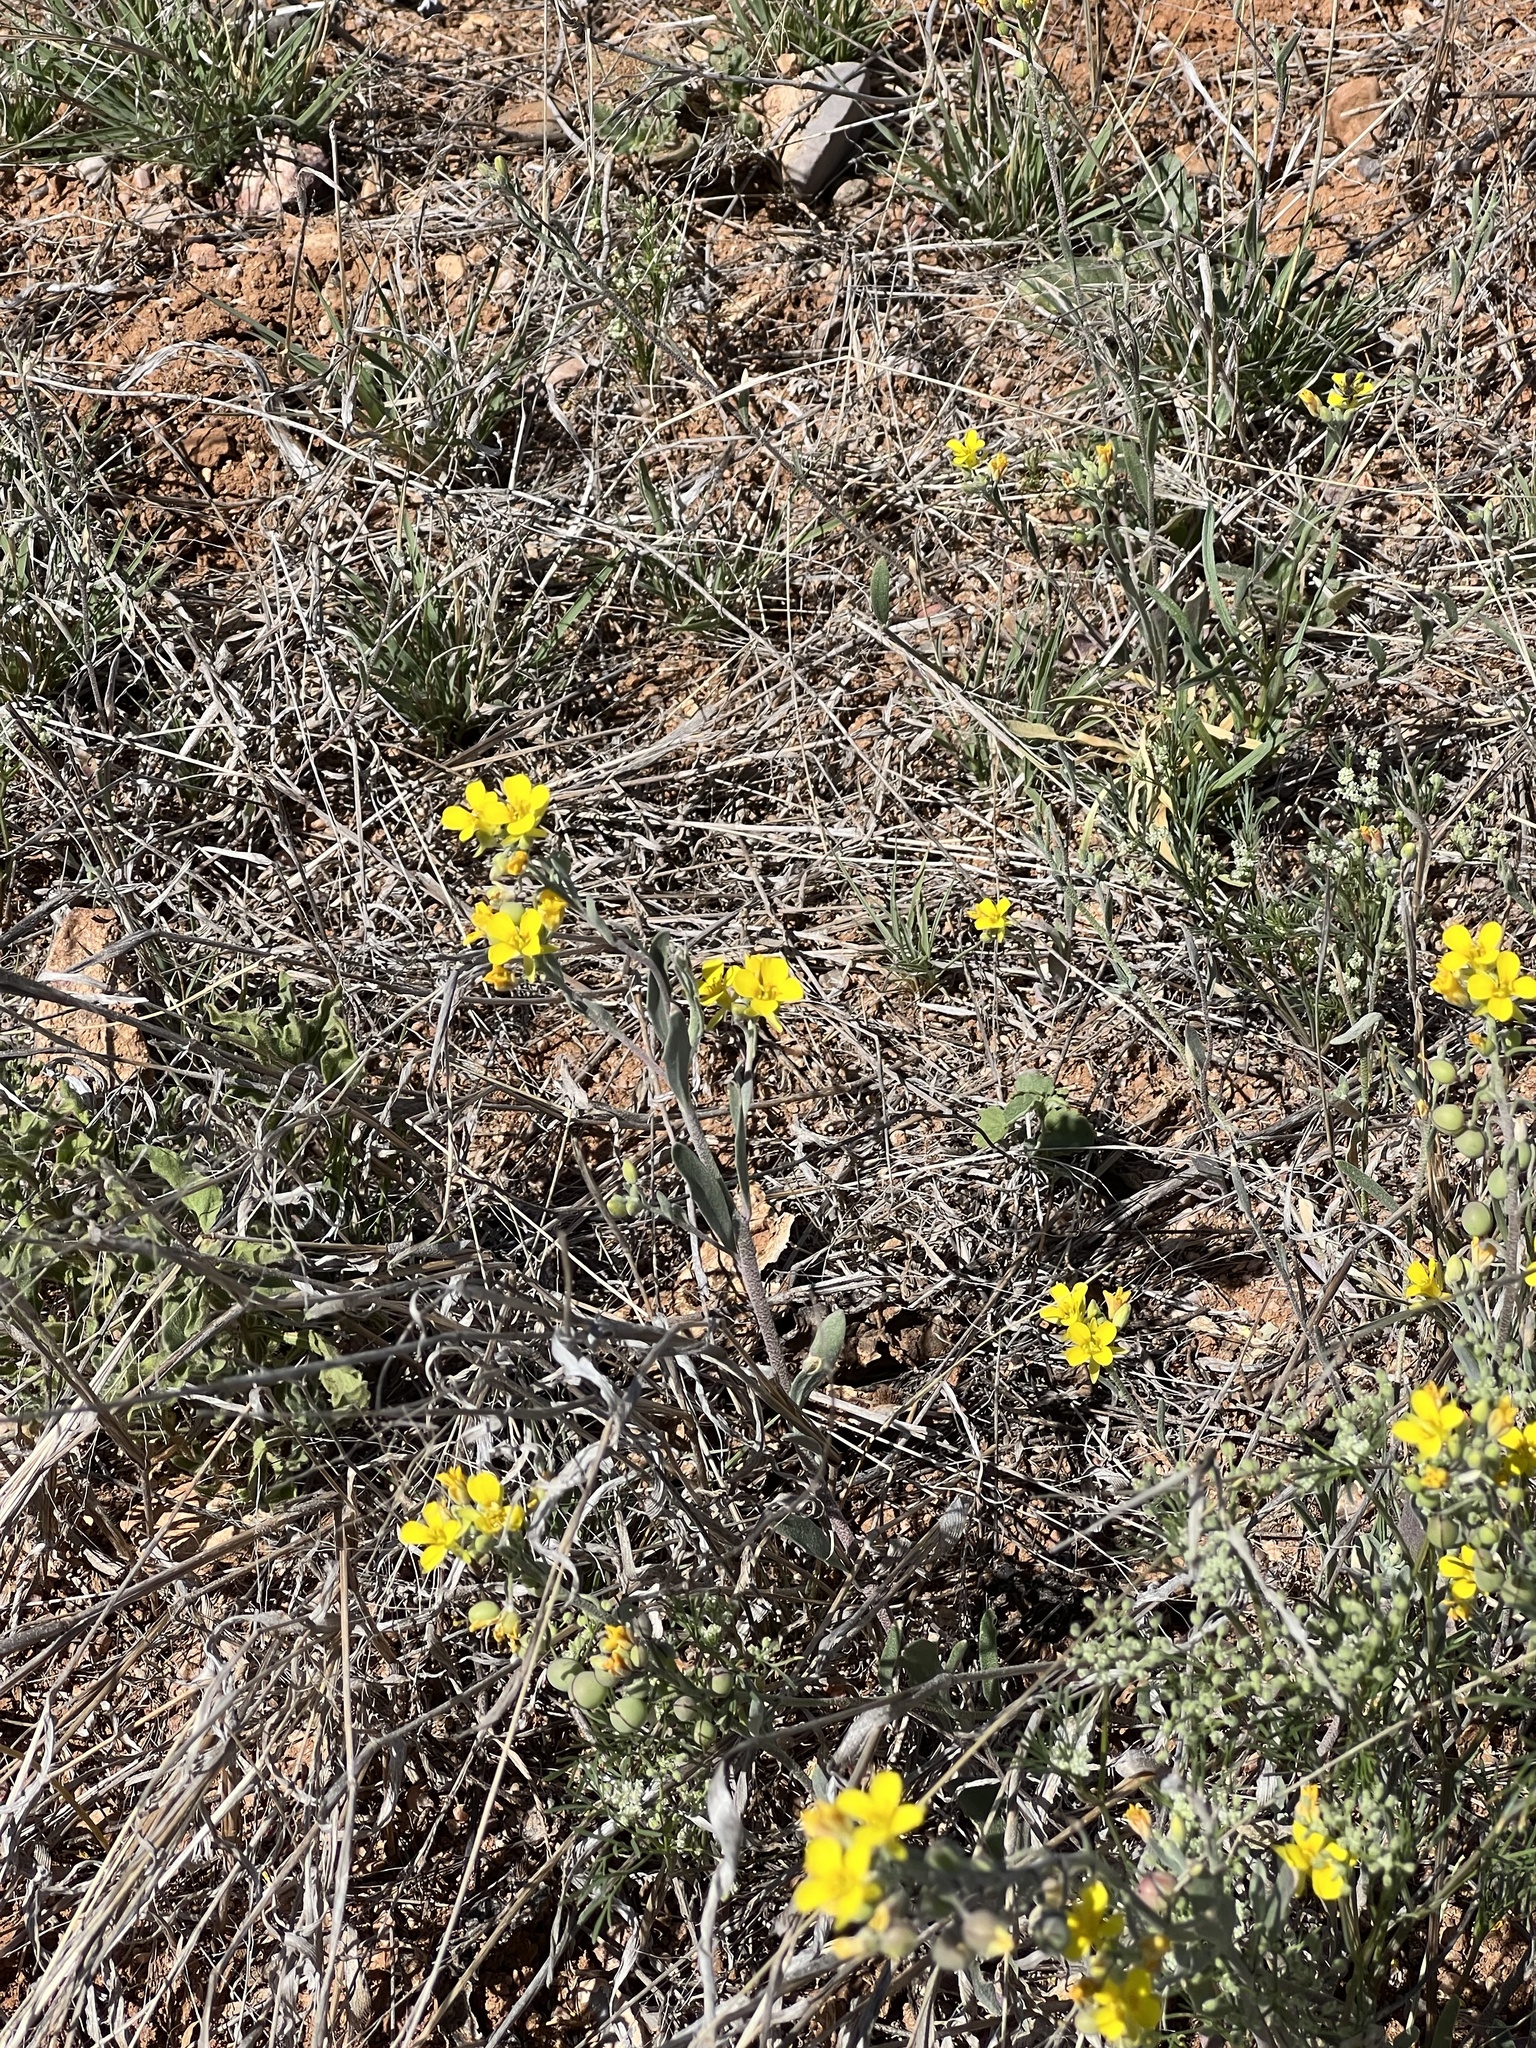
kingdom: Plantae
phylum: Tracheophyta
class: Magnoliopsida
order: Brassicales
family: Brassicaceae
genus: Physaria
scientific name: Physaria gordonii
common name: Gordon's bladderpod
